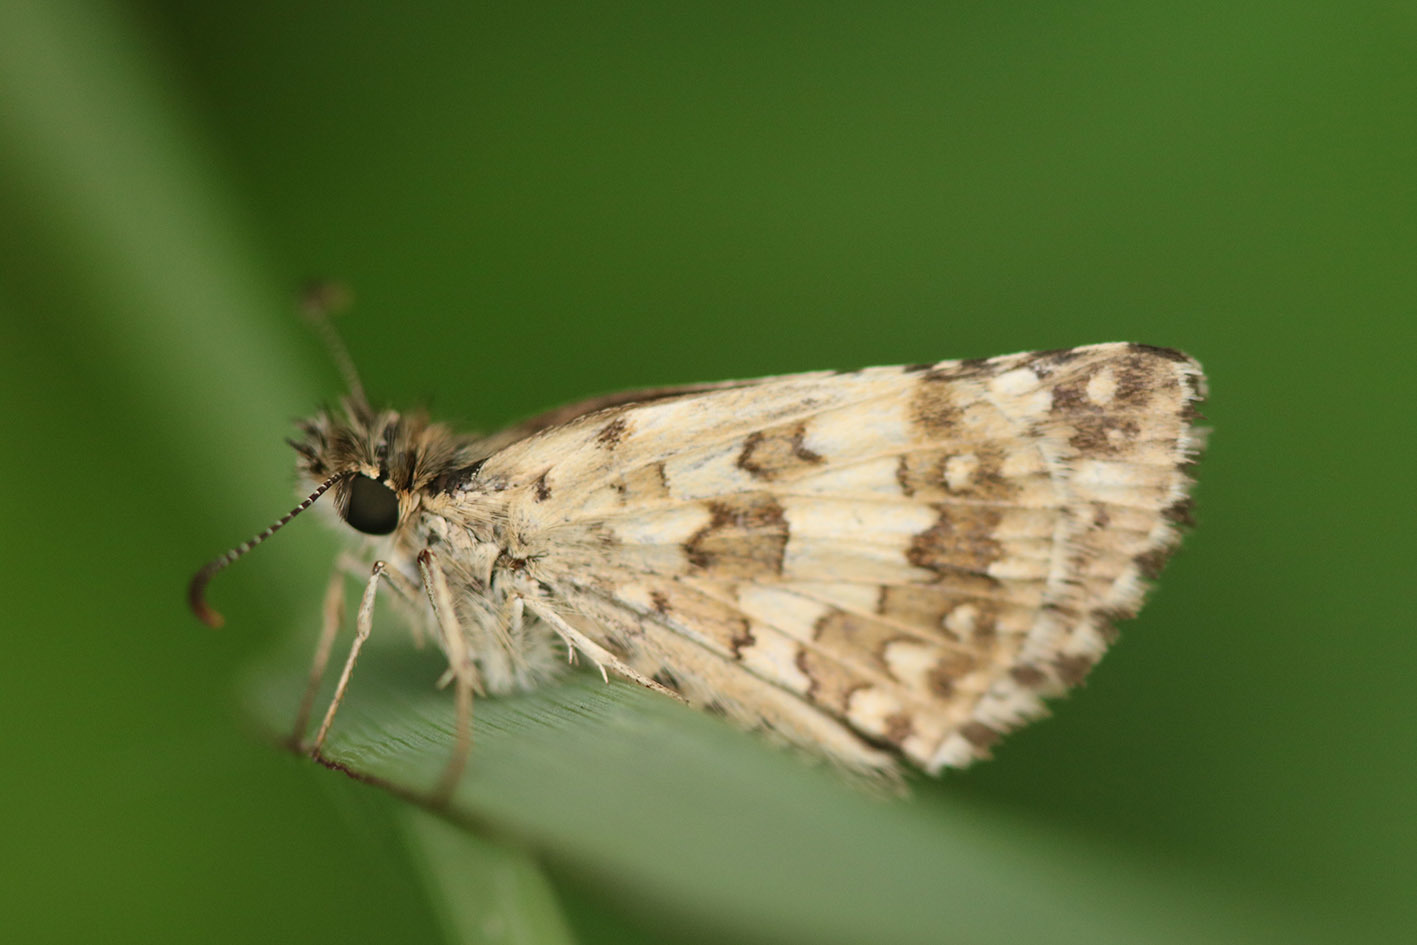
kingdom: Animalia
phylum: Arthropoda
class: Insecta
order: Lepidoptera
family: Hesperiidae
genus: Burnsius
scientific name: Burnsius orcynoides
